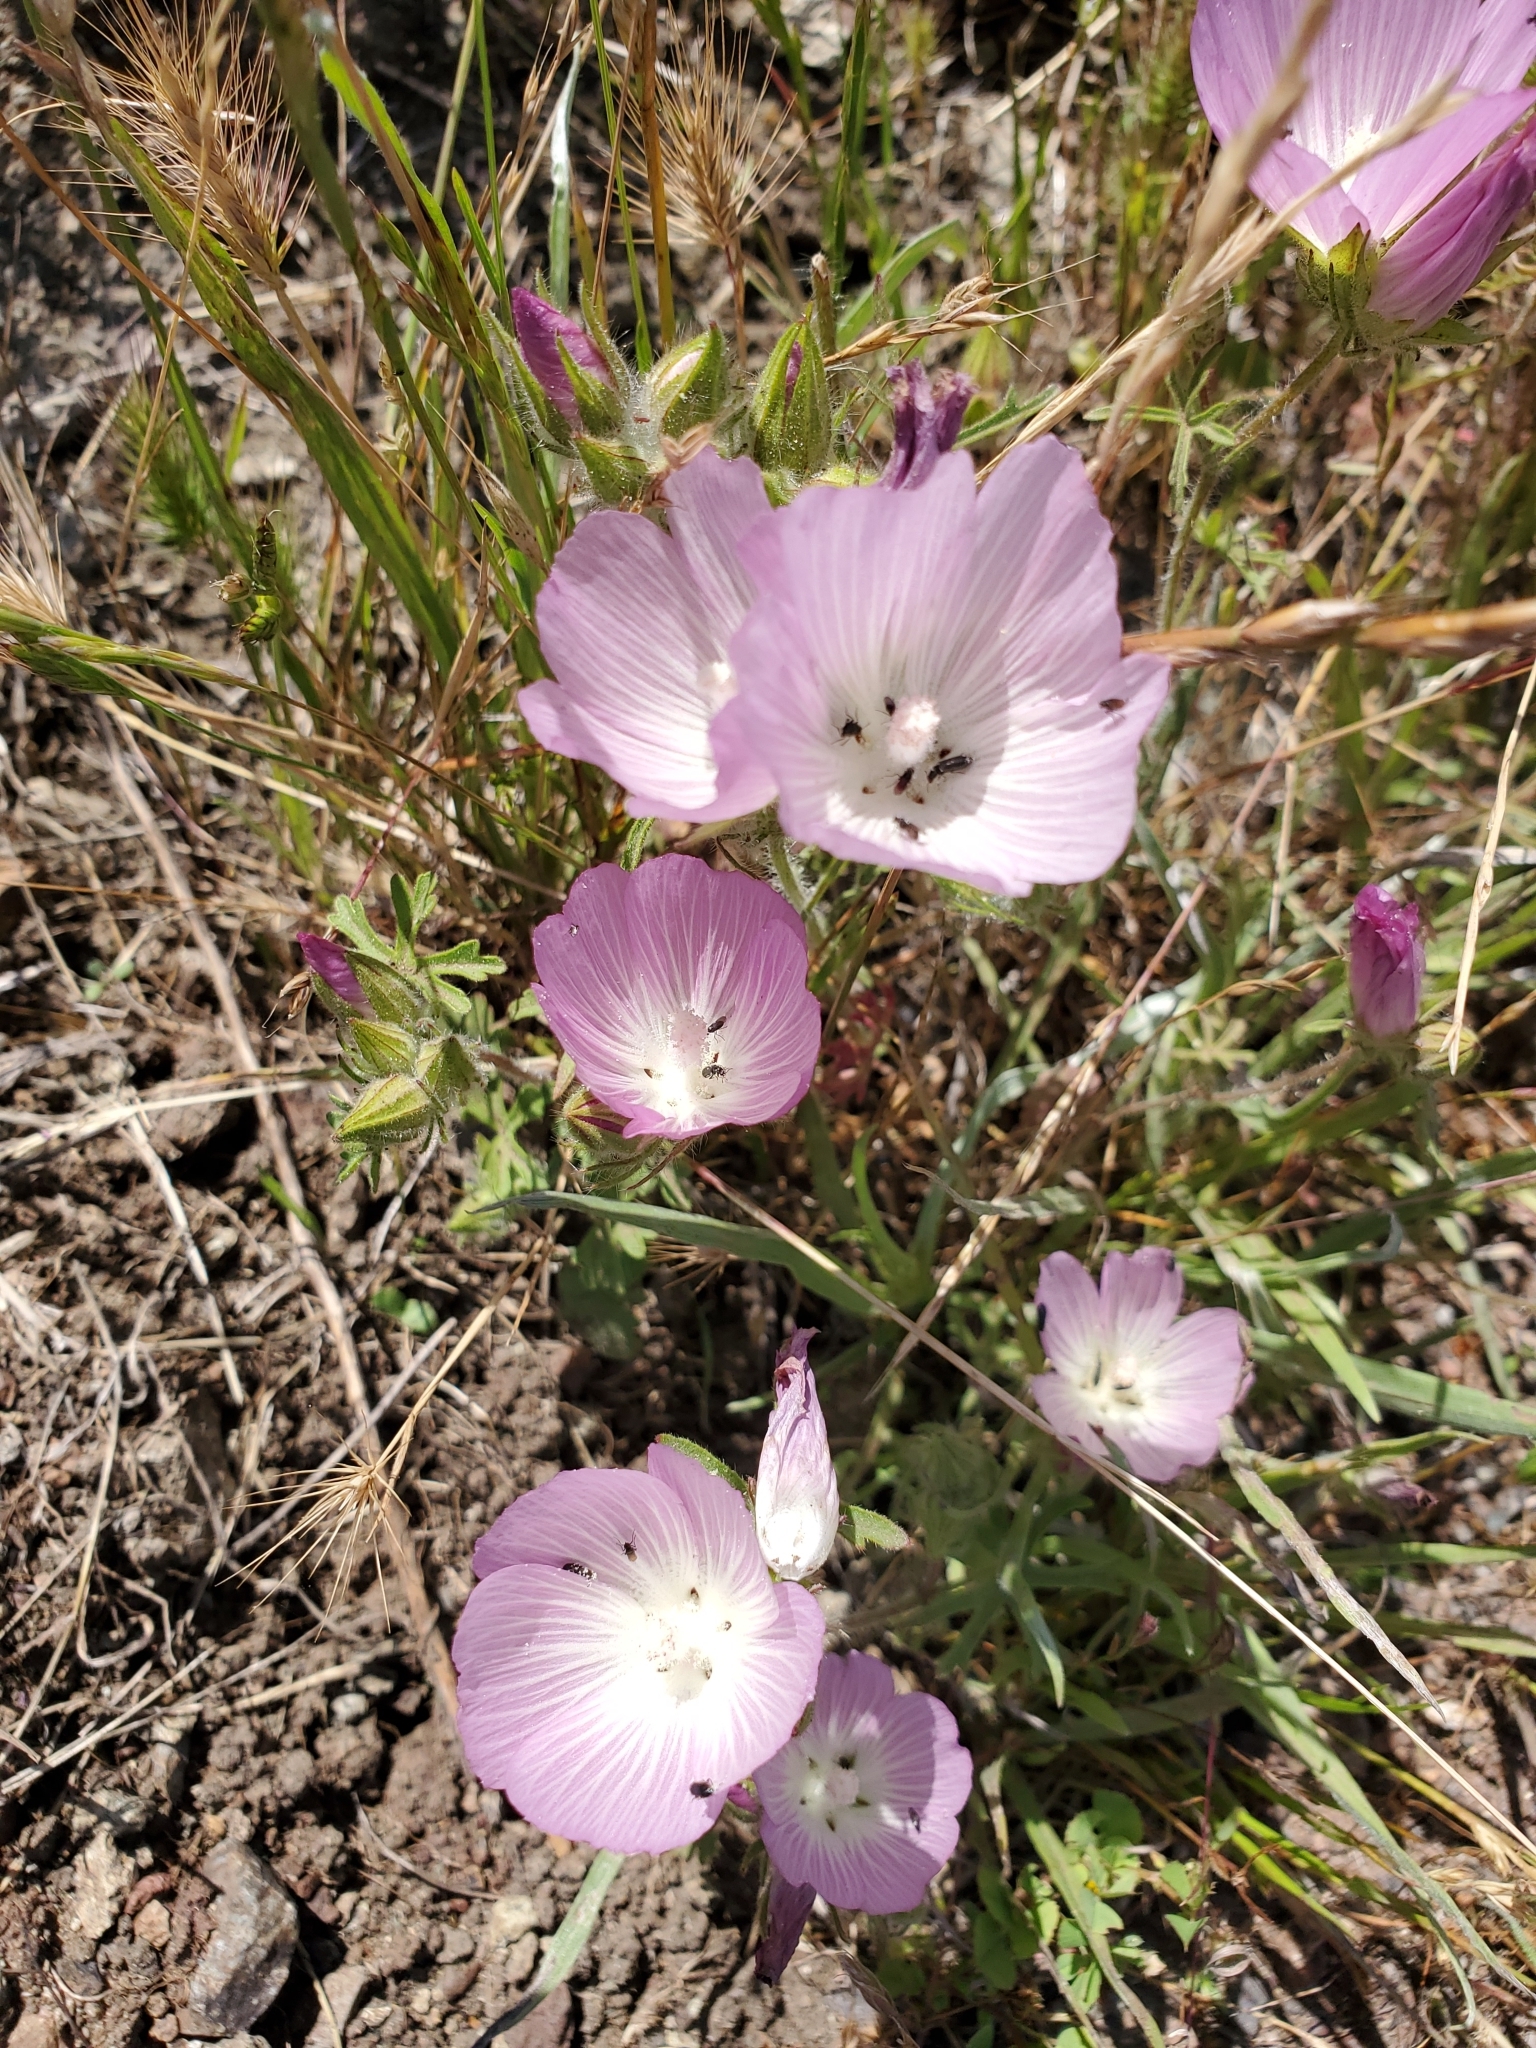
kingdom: Plantae
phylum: Tracheophyta
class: Magnoliopsida
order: Malvales
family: Malvaceae
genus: Sidalcea
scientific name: Sidalcea diploscypha
